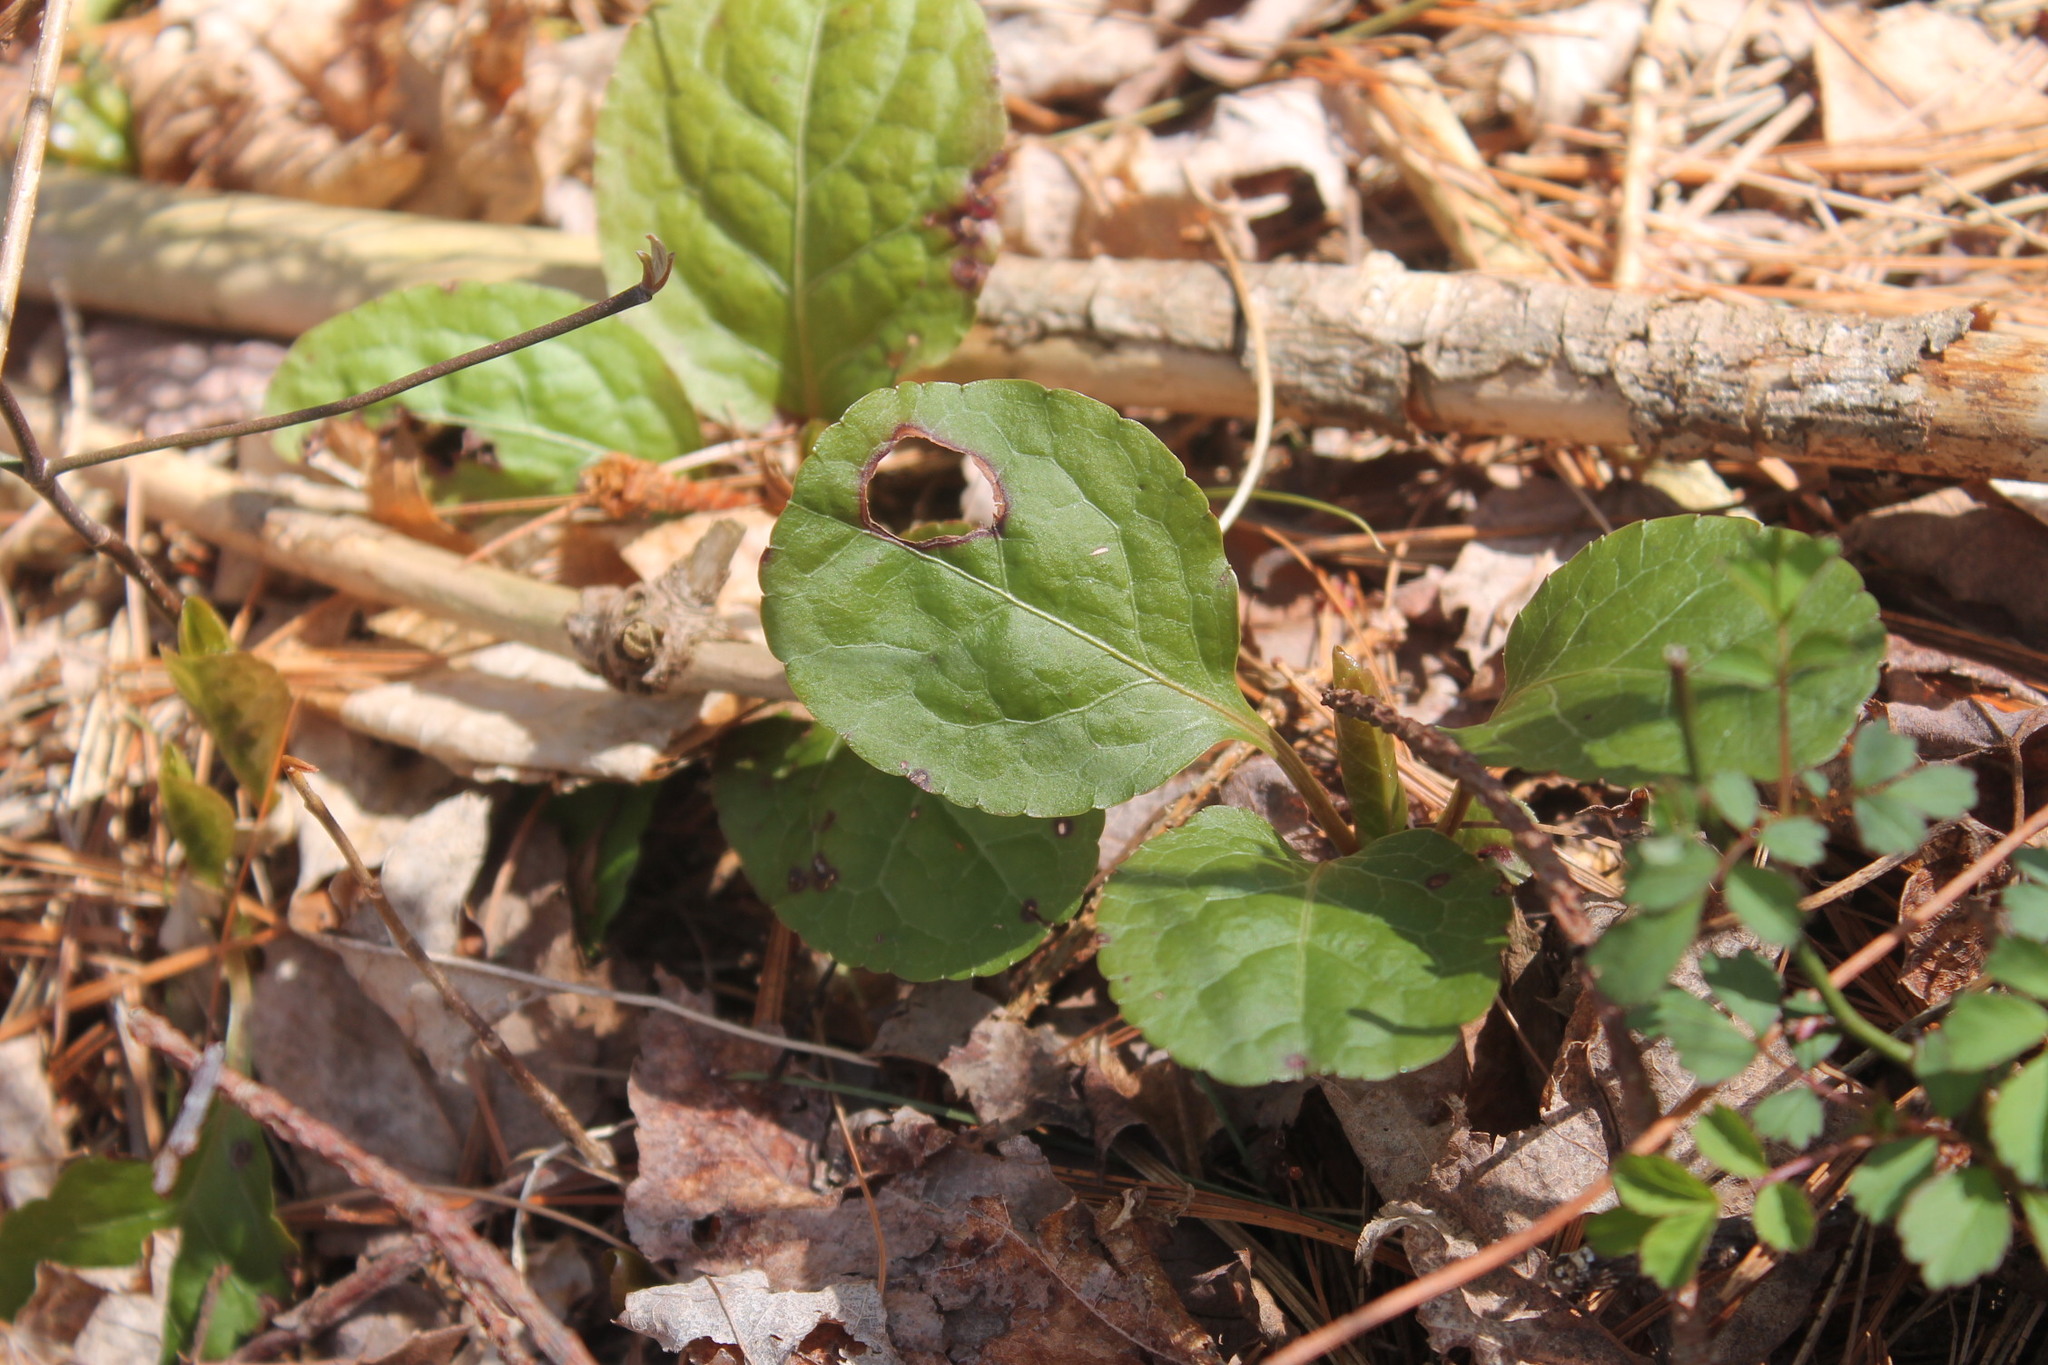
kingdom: Plantae
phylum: Tracheophyta
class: Magnoliopsida
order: Ericales
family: Ericaceae
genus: Pyrola
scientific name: Pyrola elliptica
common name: Shinleaf
